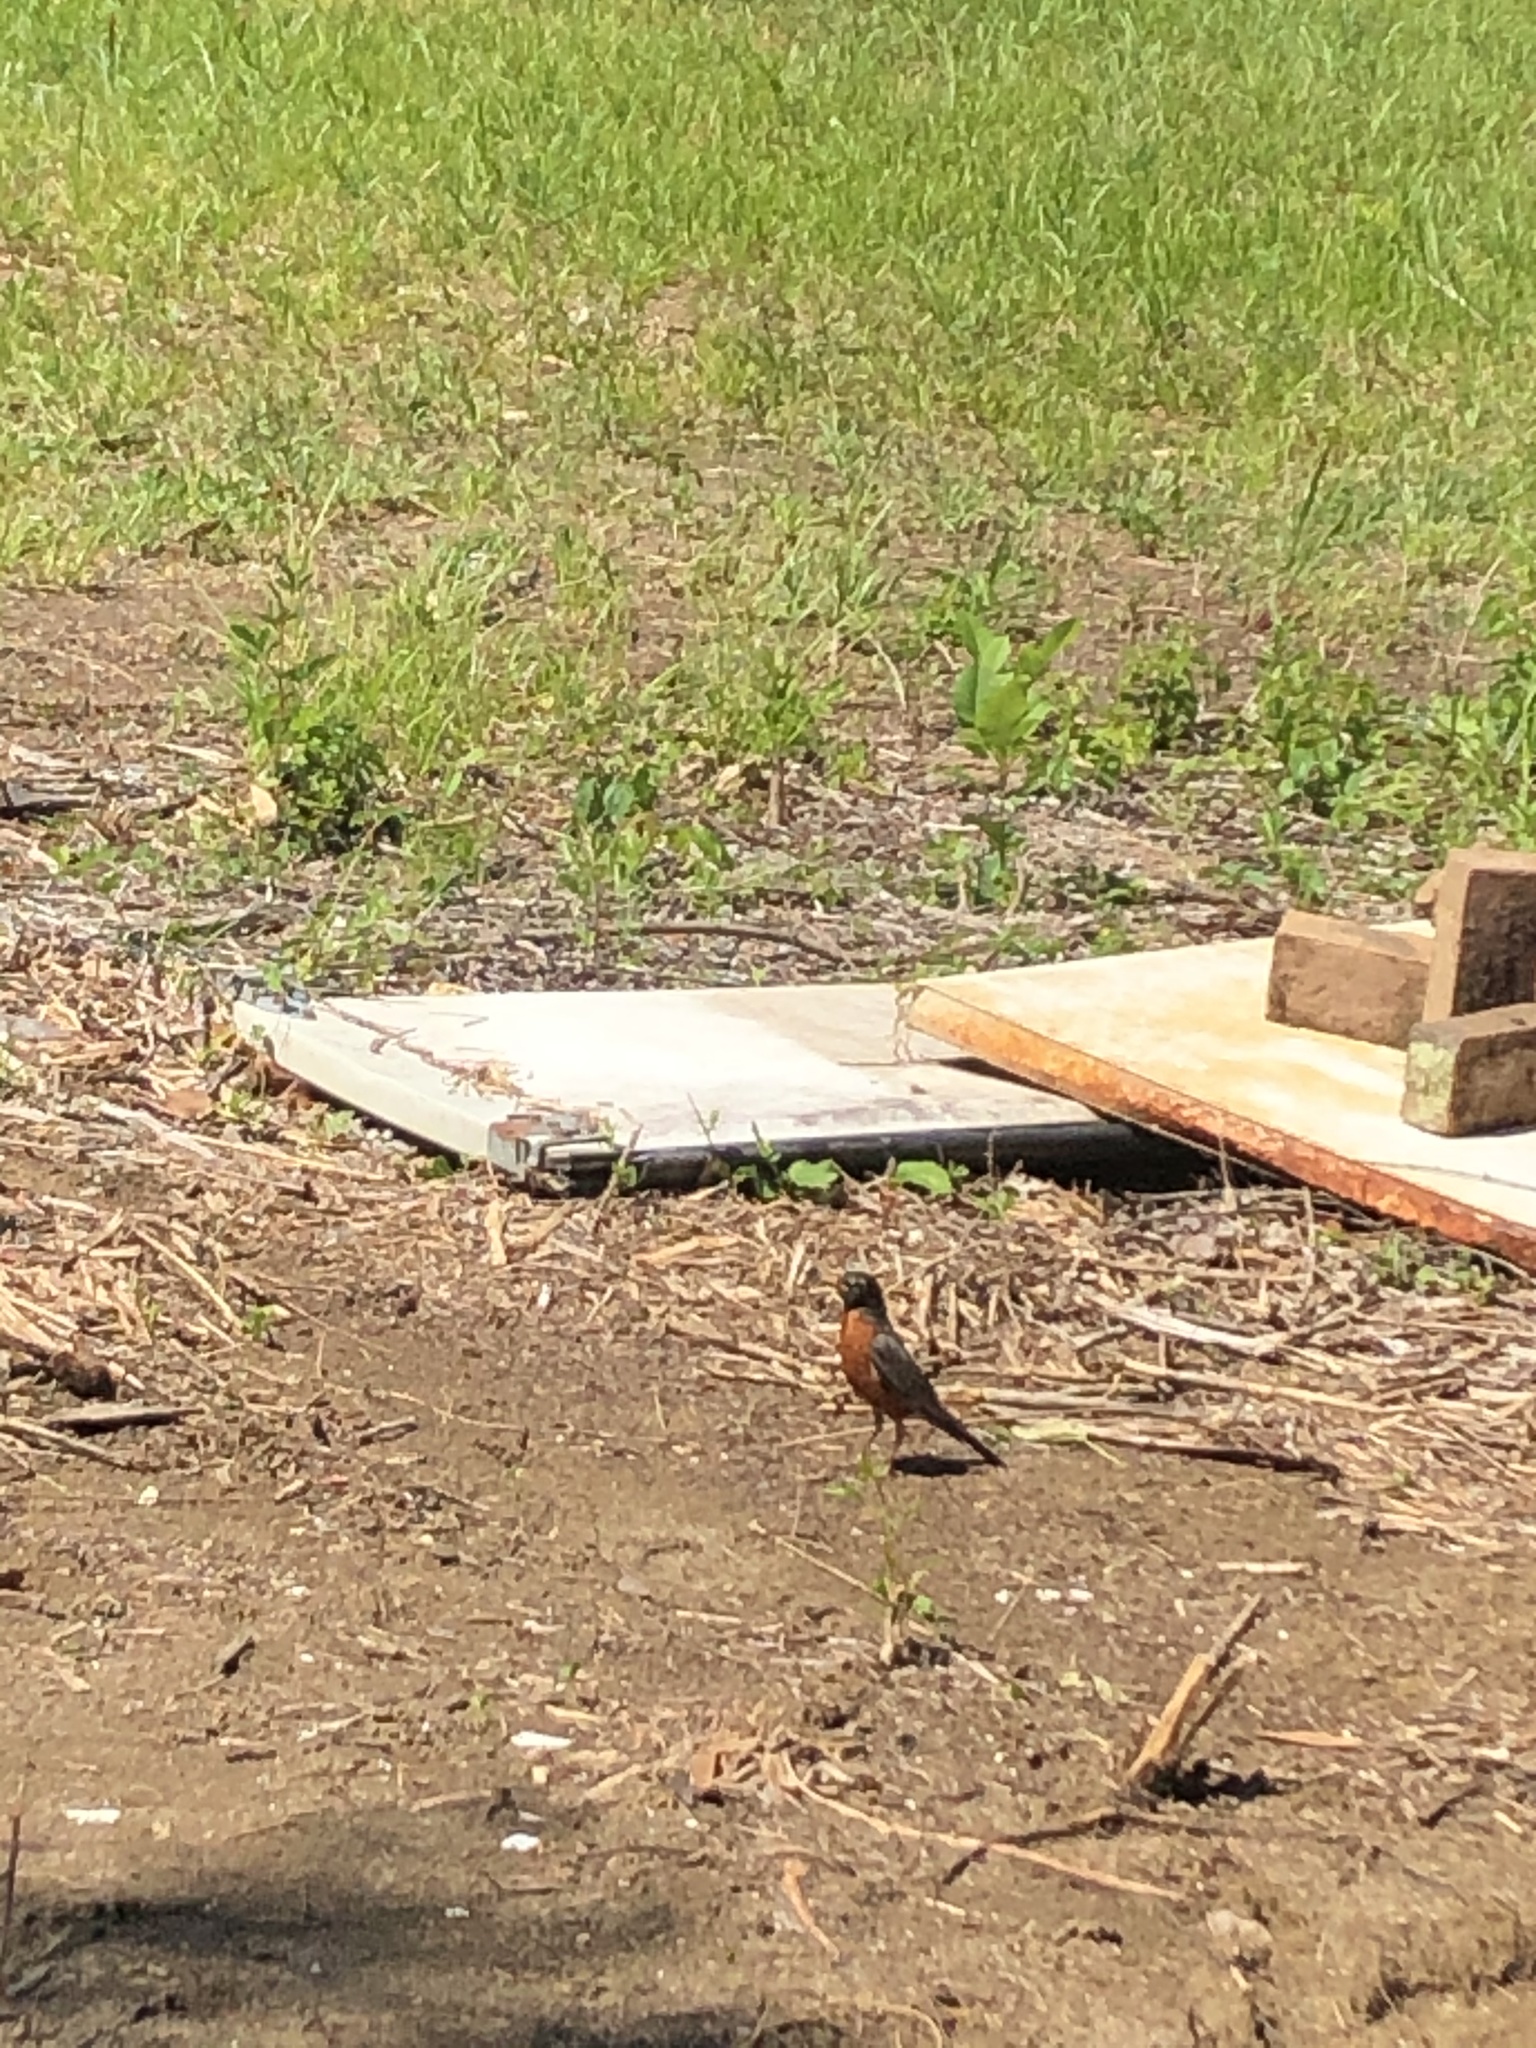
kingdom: Animalia
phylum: Chordata
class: Aves
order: Passeriformes
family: Turdidae
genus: Turdus
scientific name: Turdus migratorius
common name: American robin
